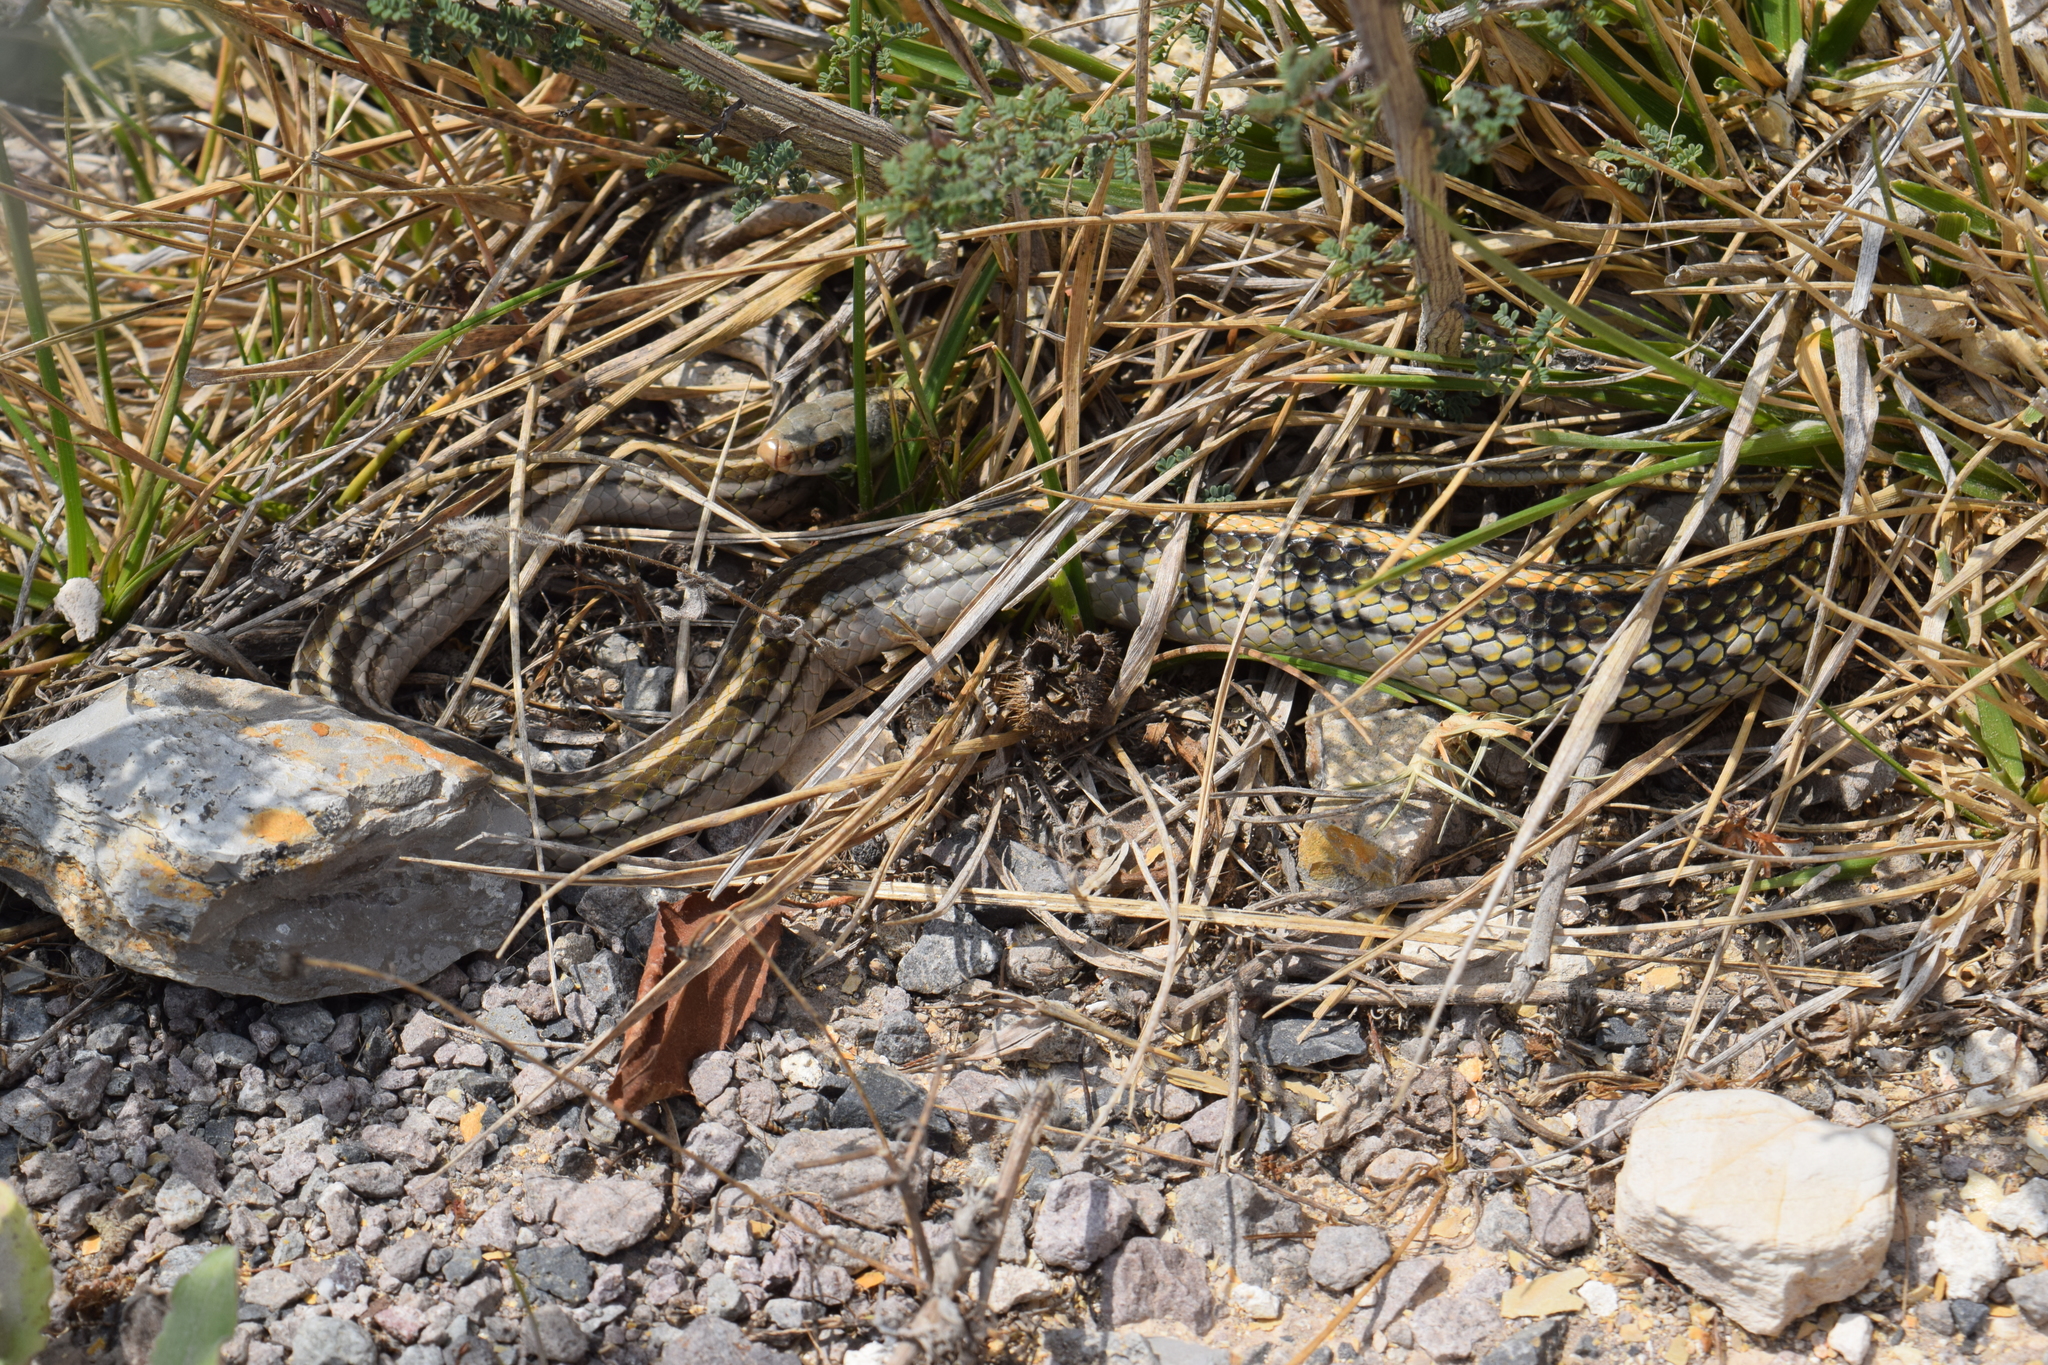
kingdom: Animalia
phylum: Chordata
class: Squamata
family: Colubridae
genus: Salvadora
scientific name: Salvadora bairdi
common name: Baird's patchnose snake
